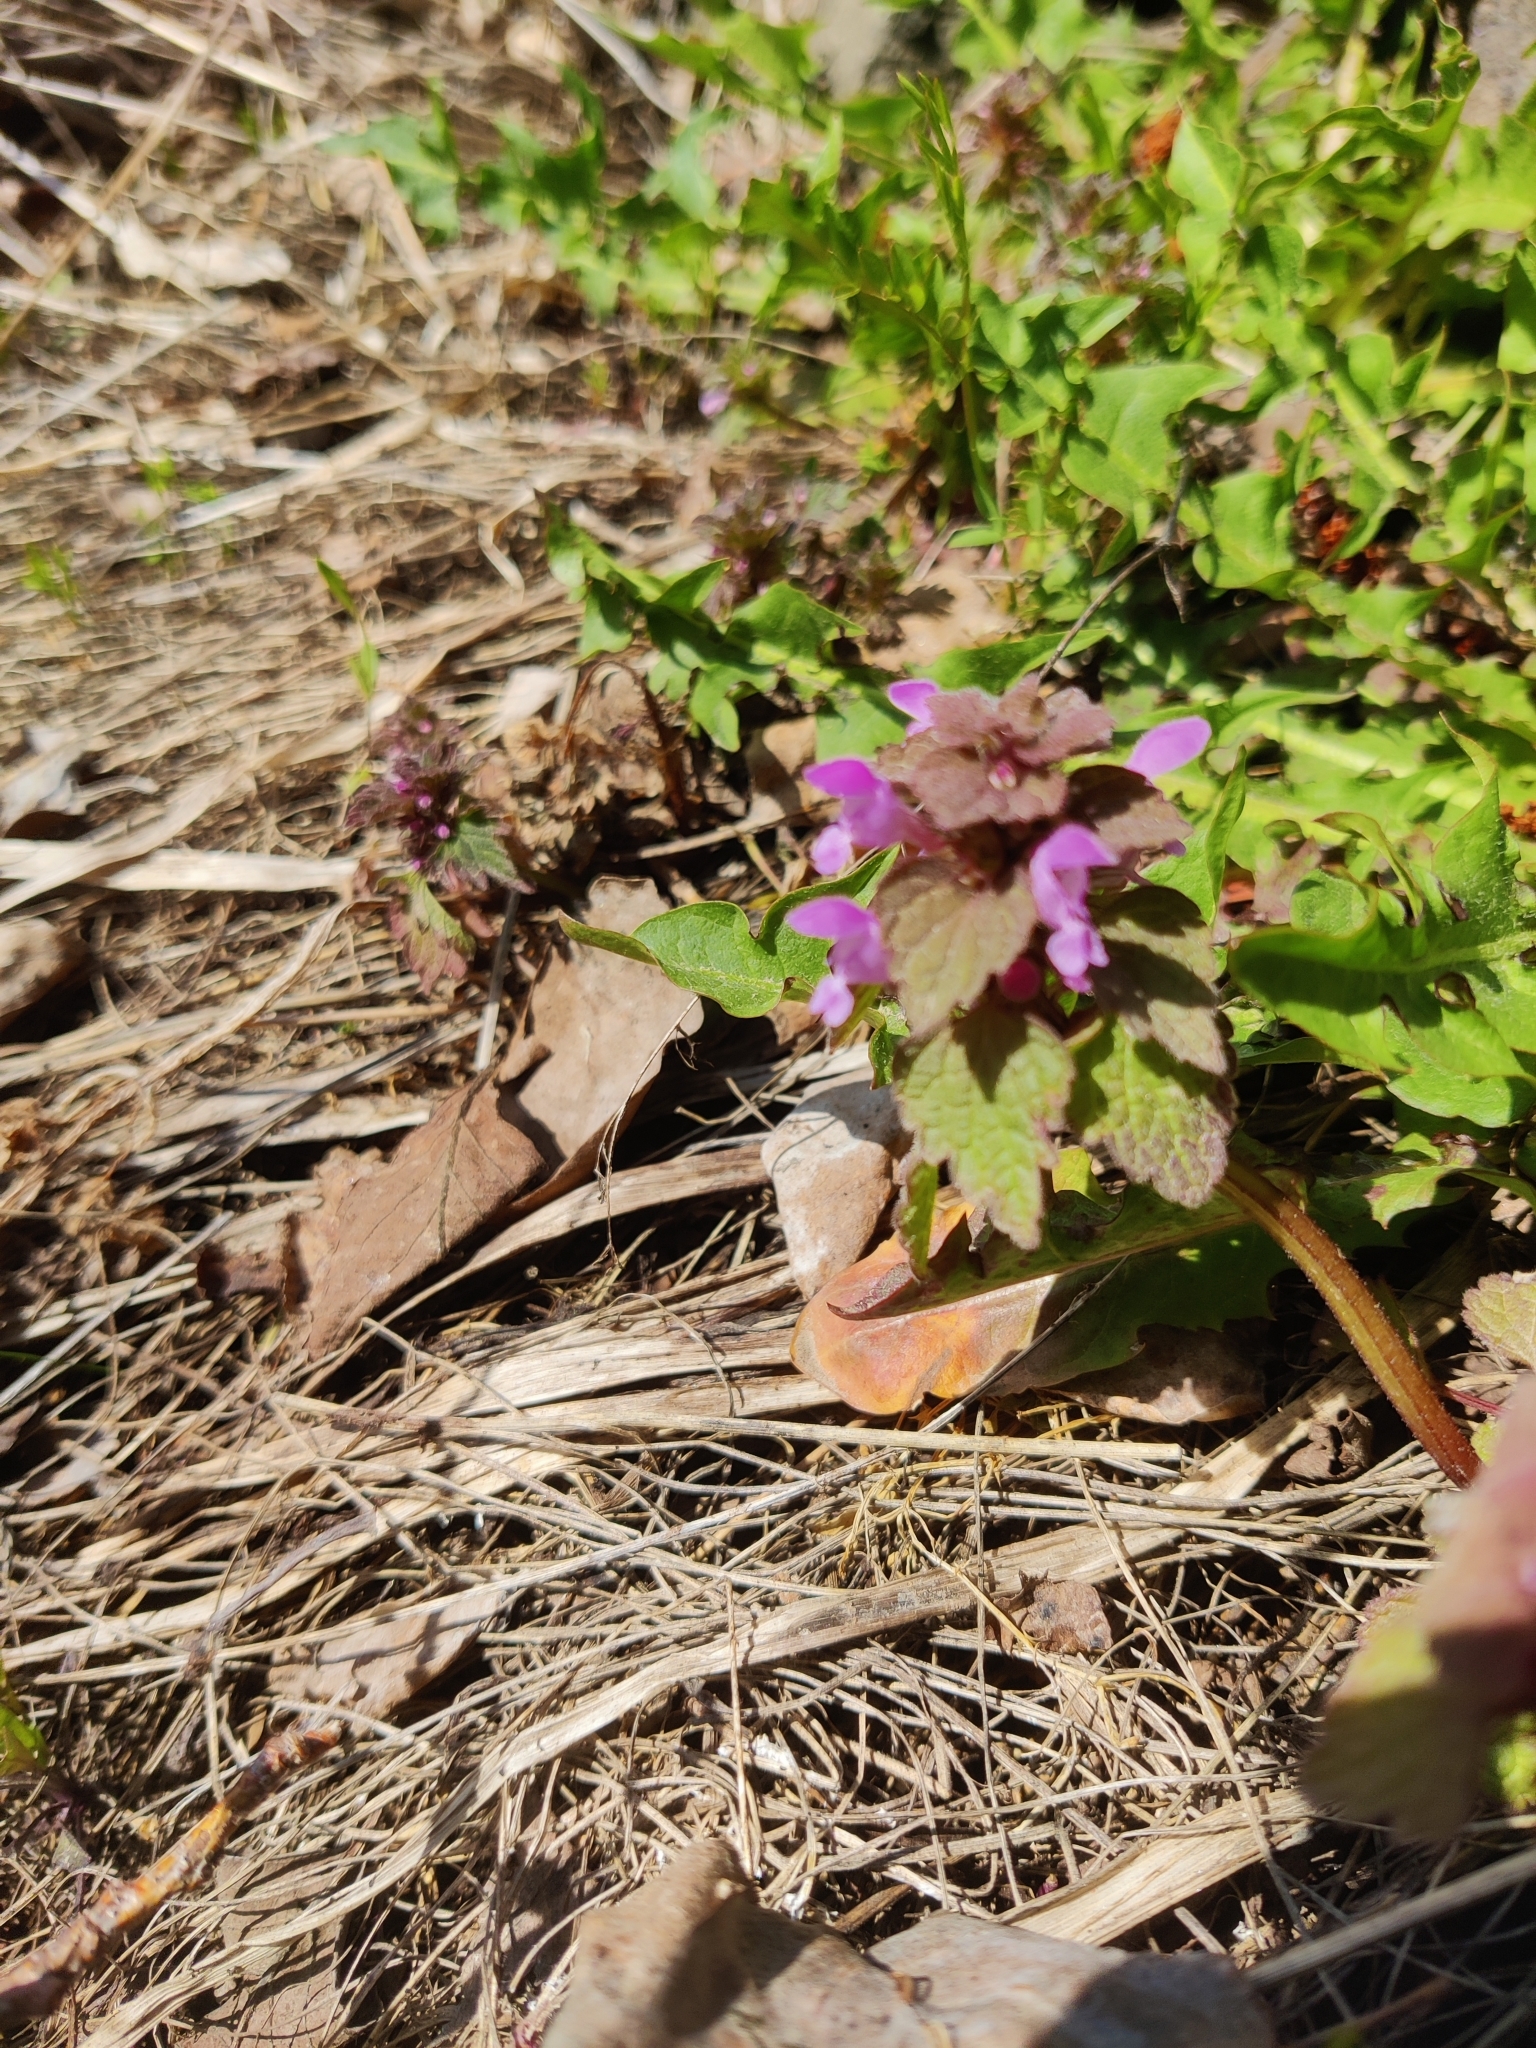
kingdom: Plantae
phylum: Tracheophyta
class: Magnoliopsida
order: Lamiales
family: Lamiaceae
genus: Lamium
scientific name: Lamium purpureum
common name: Red dead-nettle
